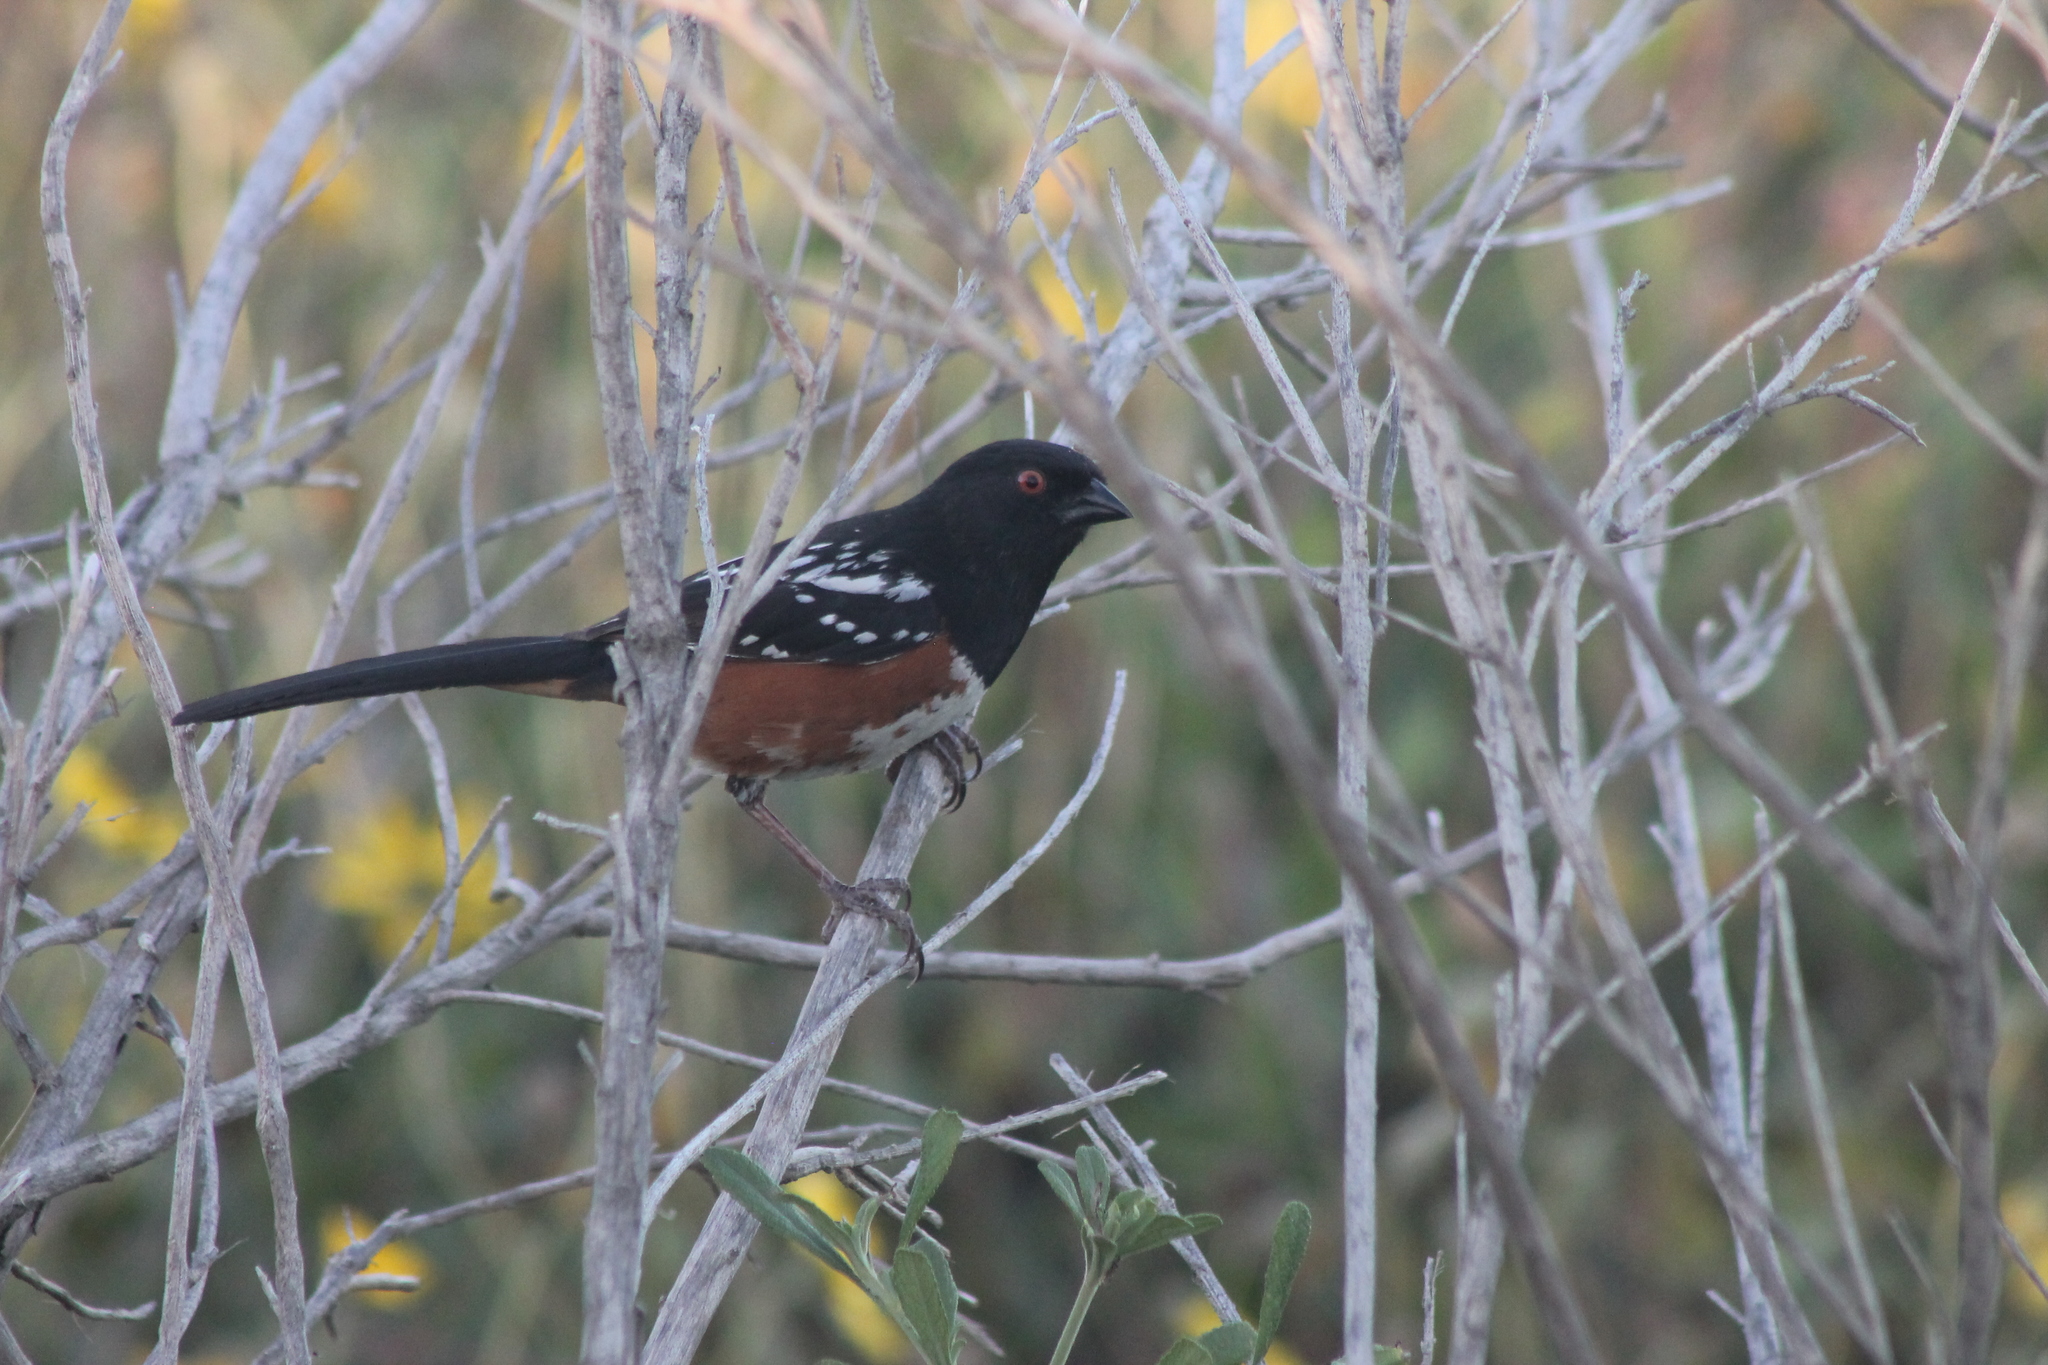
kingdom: Animalia
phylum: Chordata
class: Aves
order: Passeriformes
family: Passerellidae
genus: Pipilo
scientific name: Pipilo maculatus
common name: Spotted towhee
